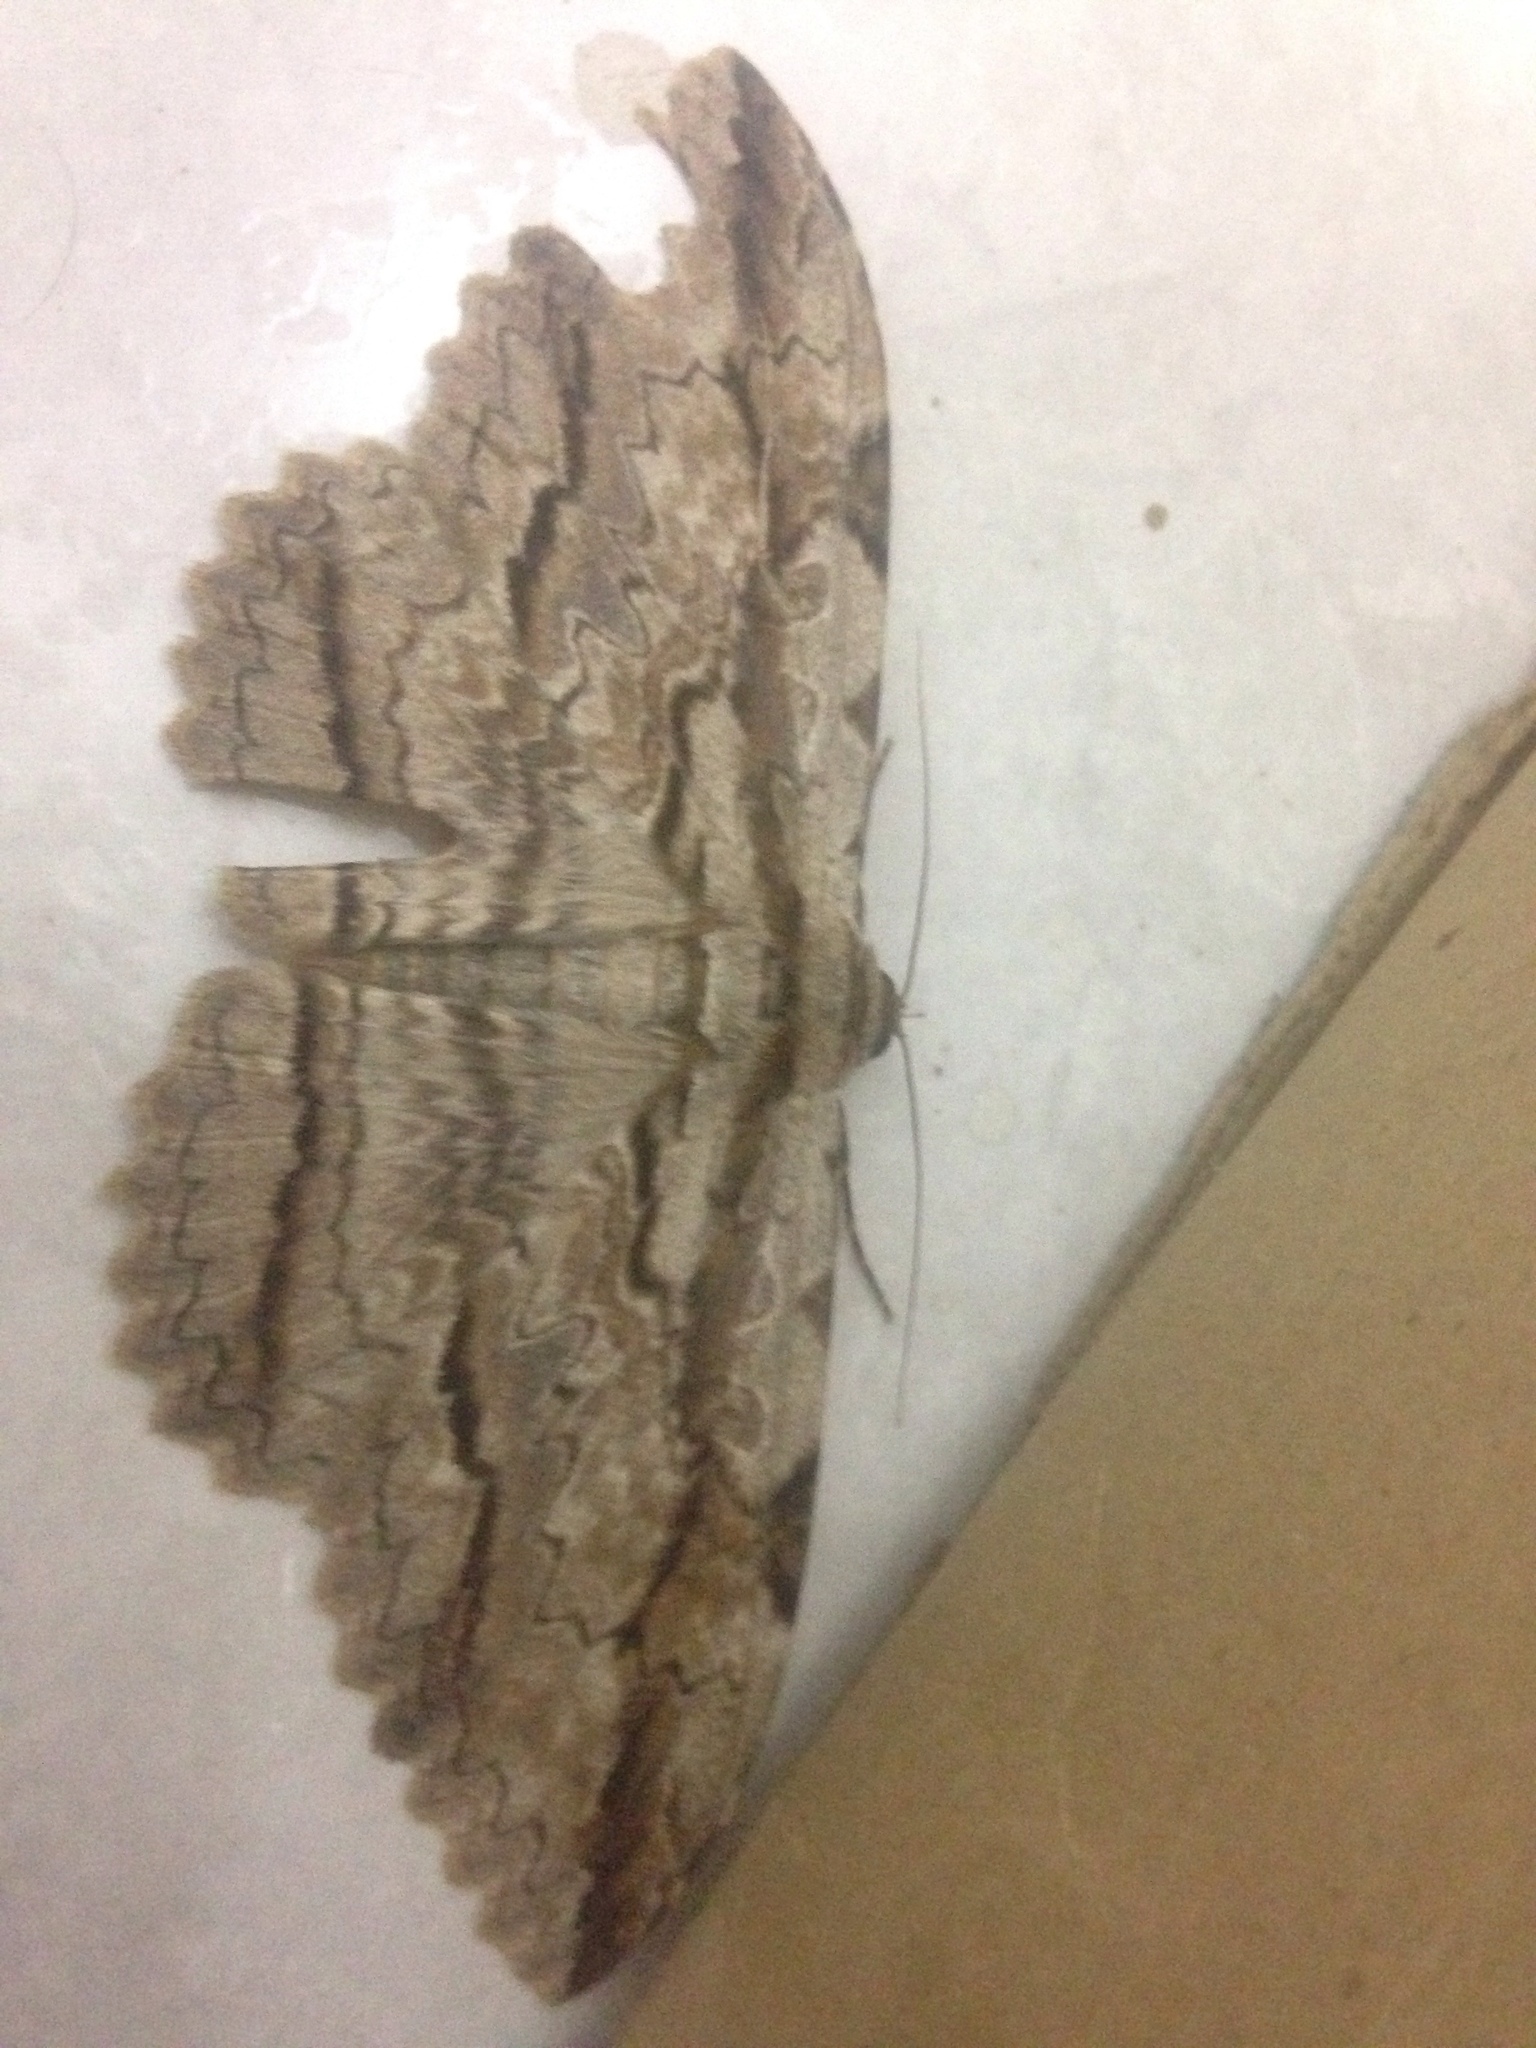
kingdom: Animalia
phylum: Arthropoda
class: Insecta
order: Lepidoptera
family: Erebidae
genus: Thysania
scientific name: Thysania zenobia
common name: Owl moth
